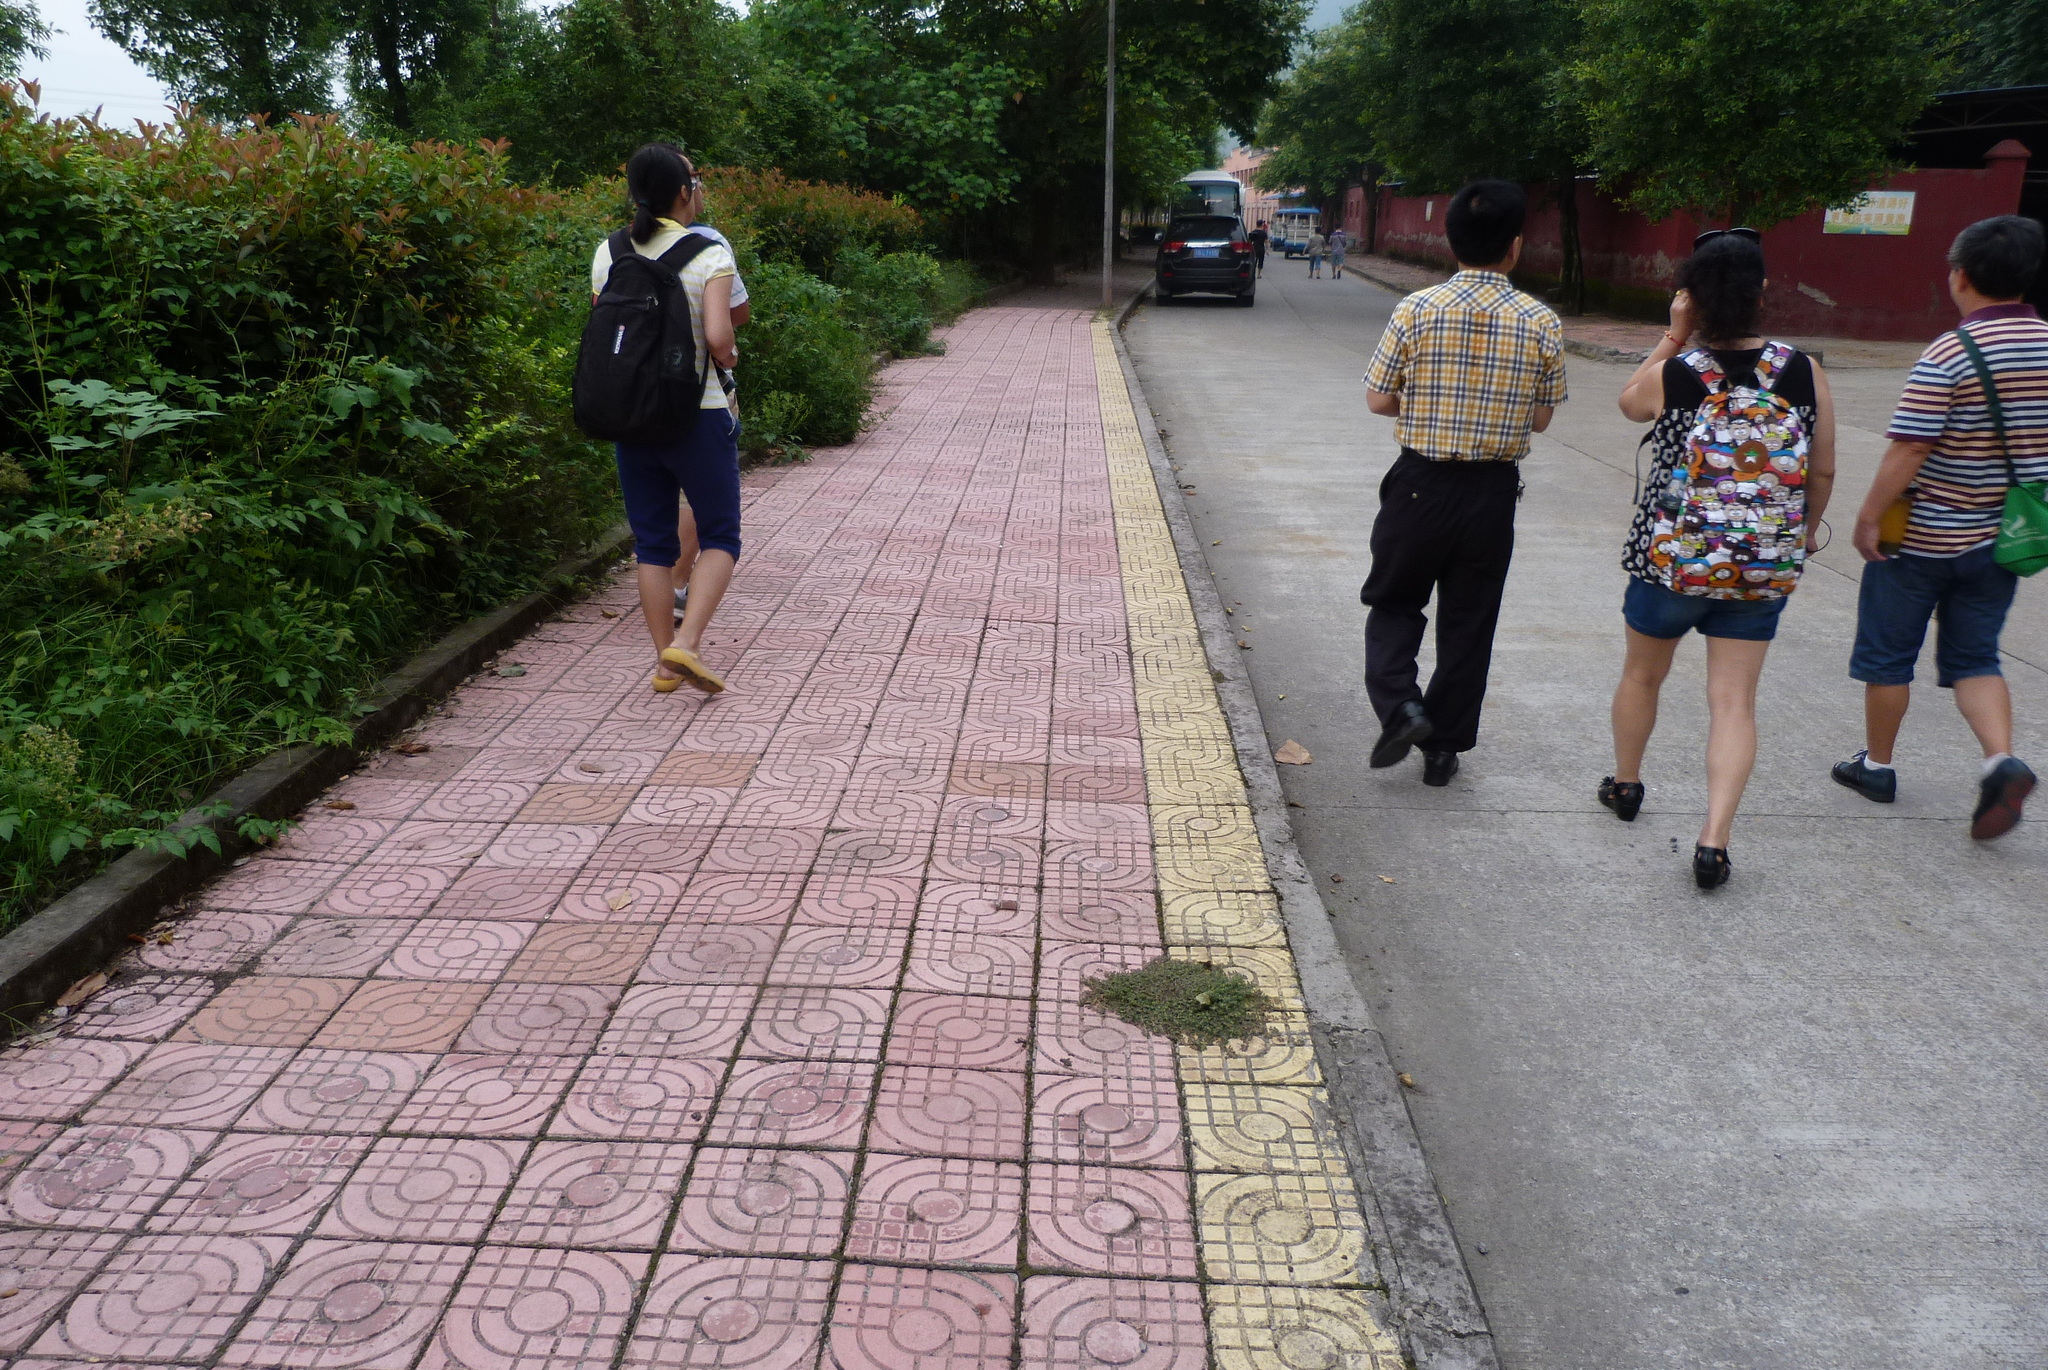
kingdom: Plantae
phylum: Tracheophyta
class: Magnoliopsida
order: Malpighiales
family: Euphorbiaceae
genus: Euphorbia
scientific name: Euphorbia maculata
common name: Spotted spurge
